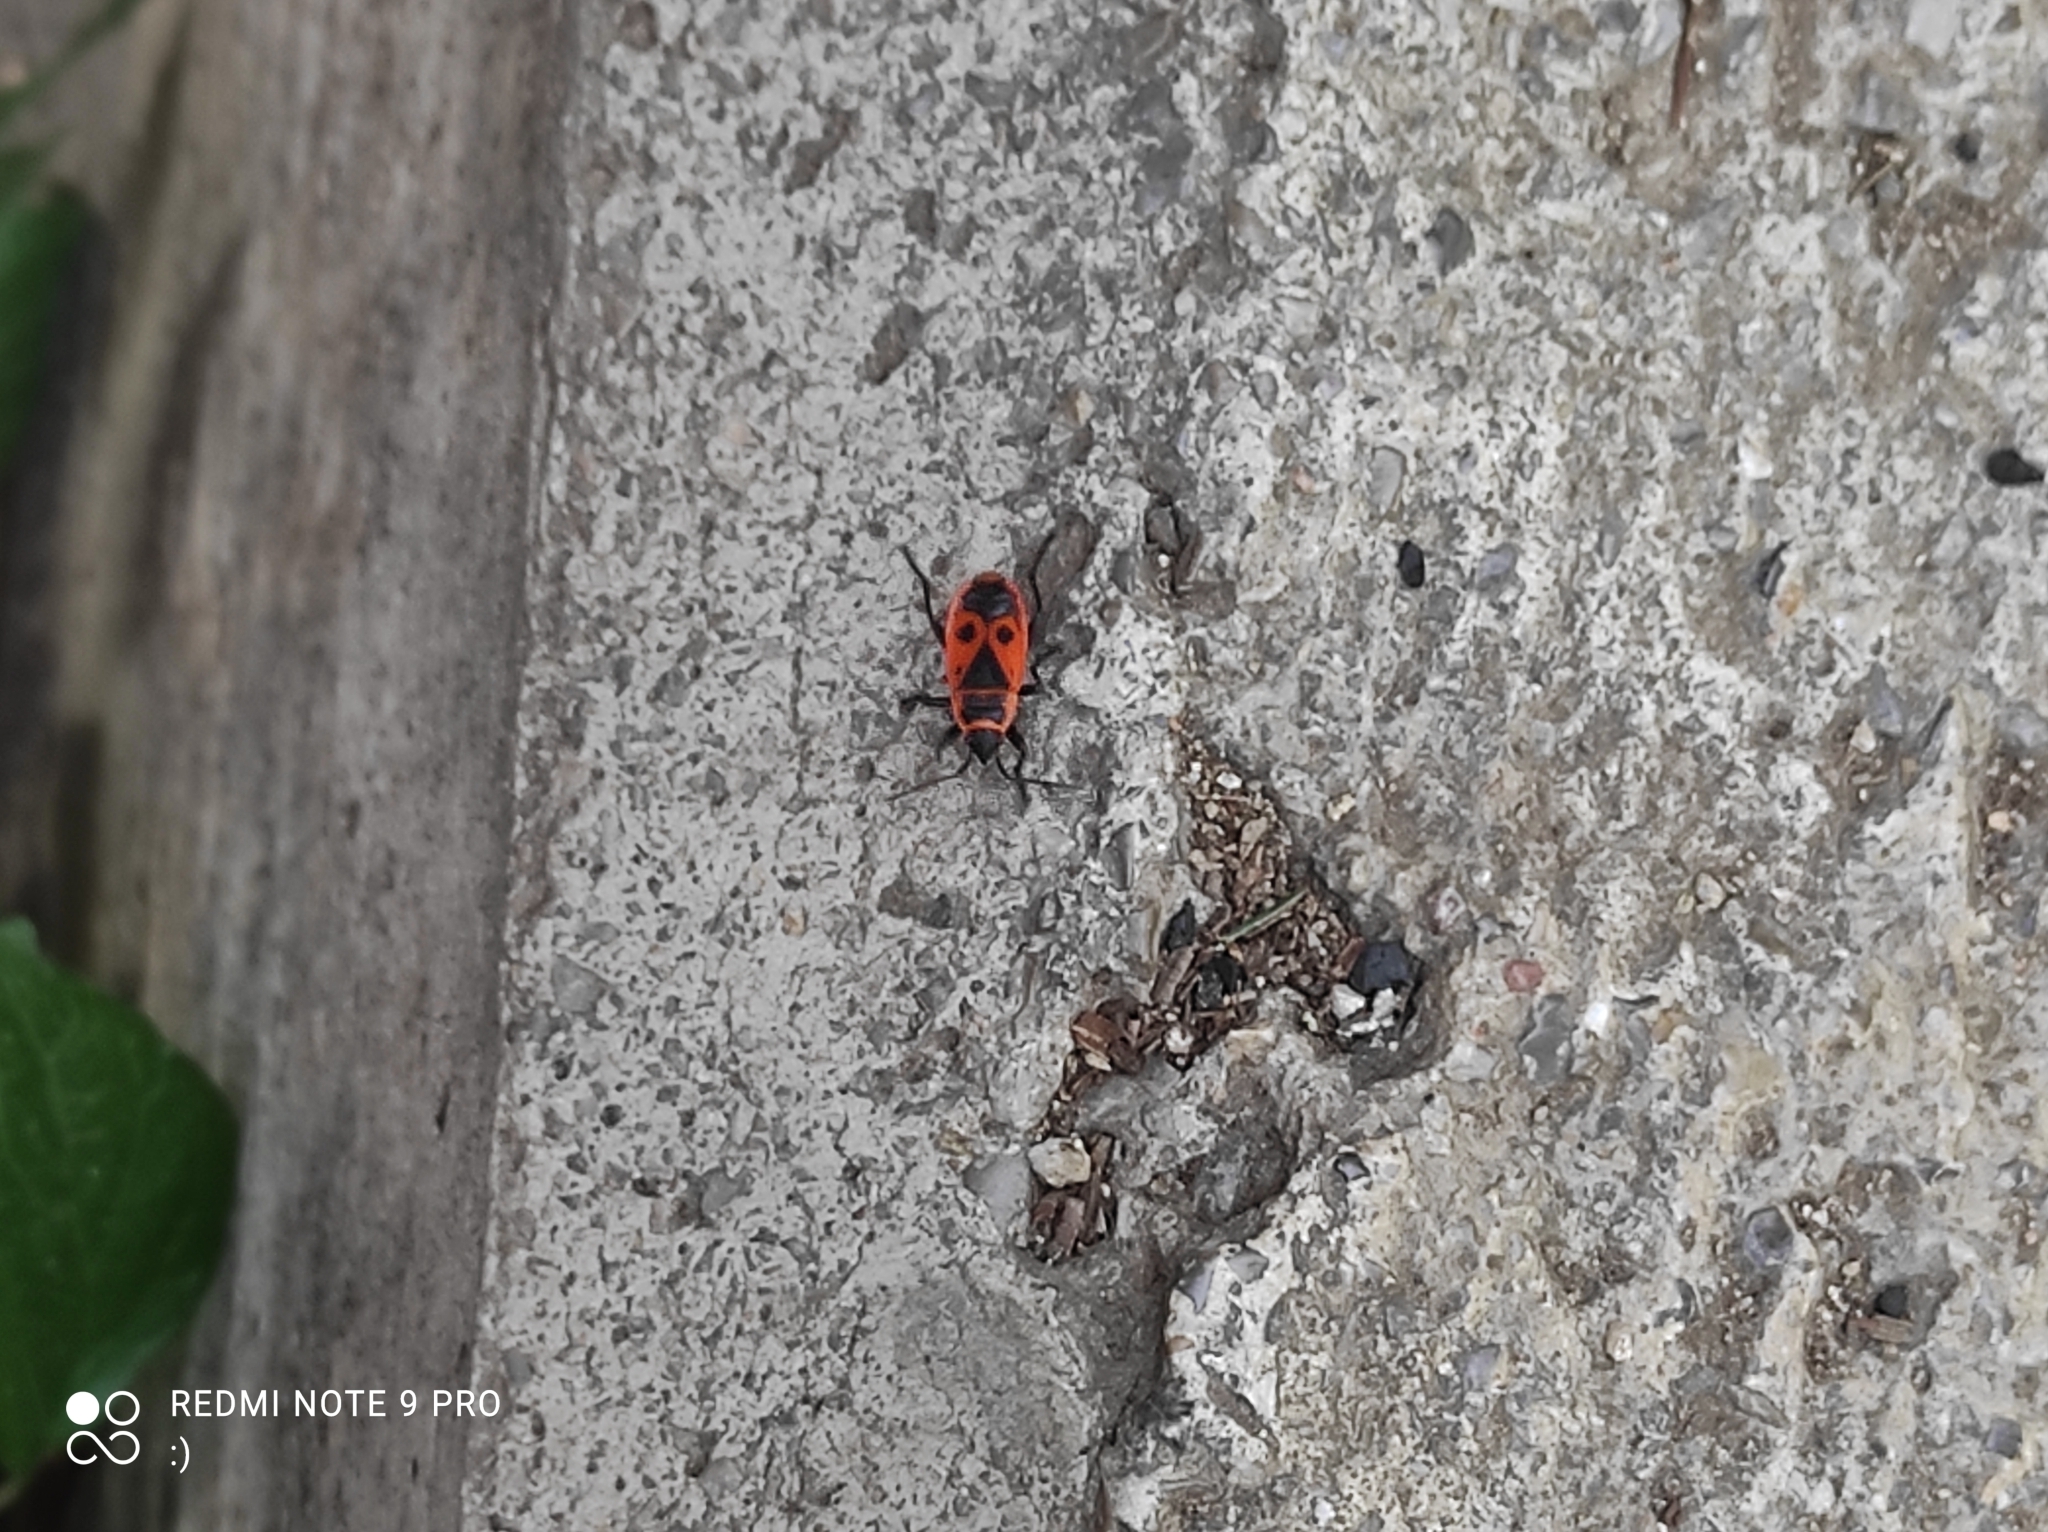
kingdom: Animalia
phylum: Arthropoda
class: Insecta
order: Hemiptera
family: Pyrrhocoridae
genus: Pyrrhocoris
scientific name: Pyrrhocoris apterus
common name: Firebug
